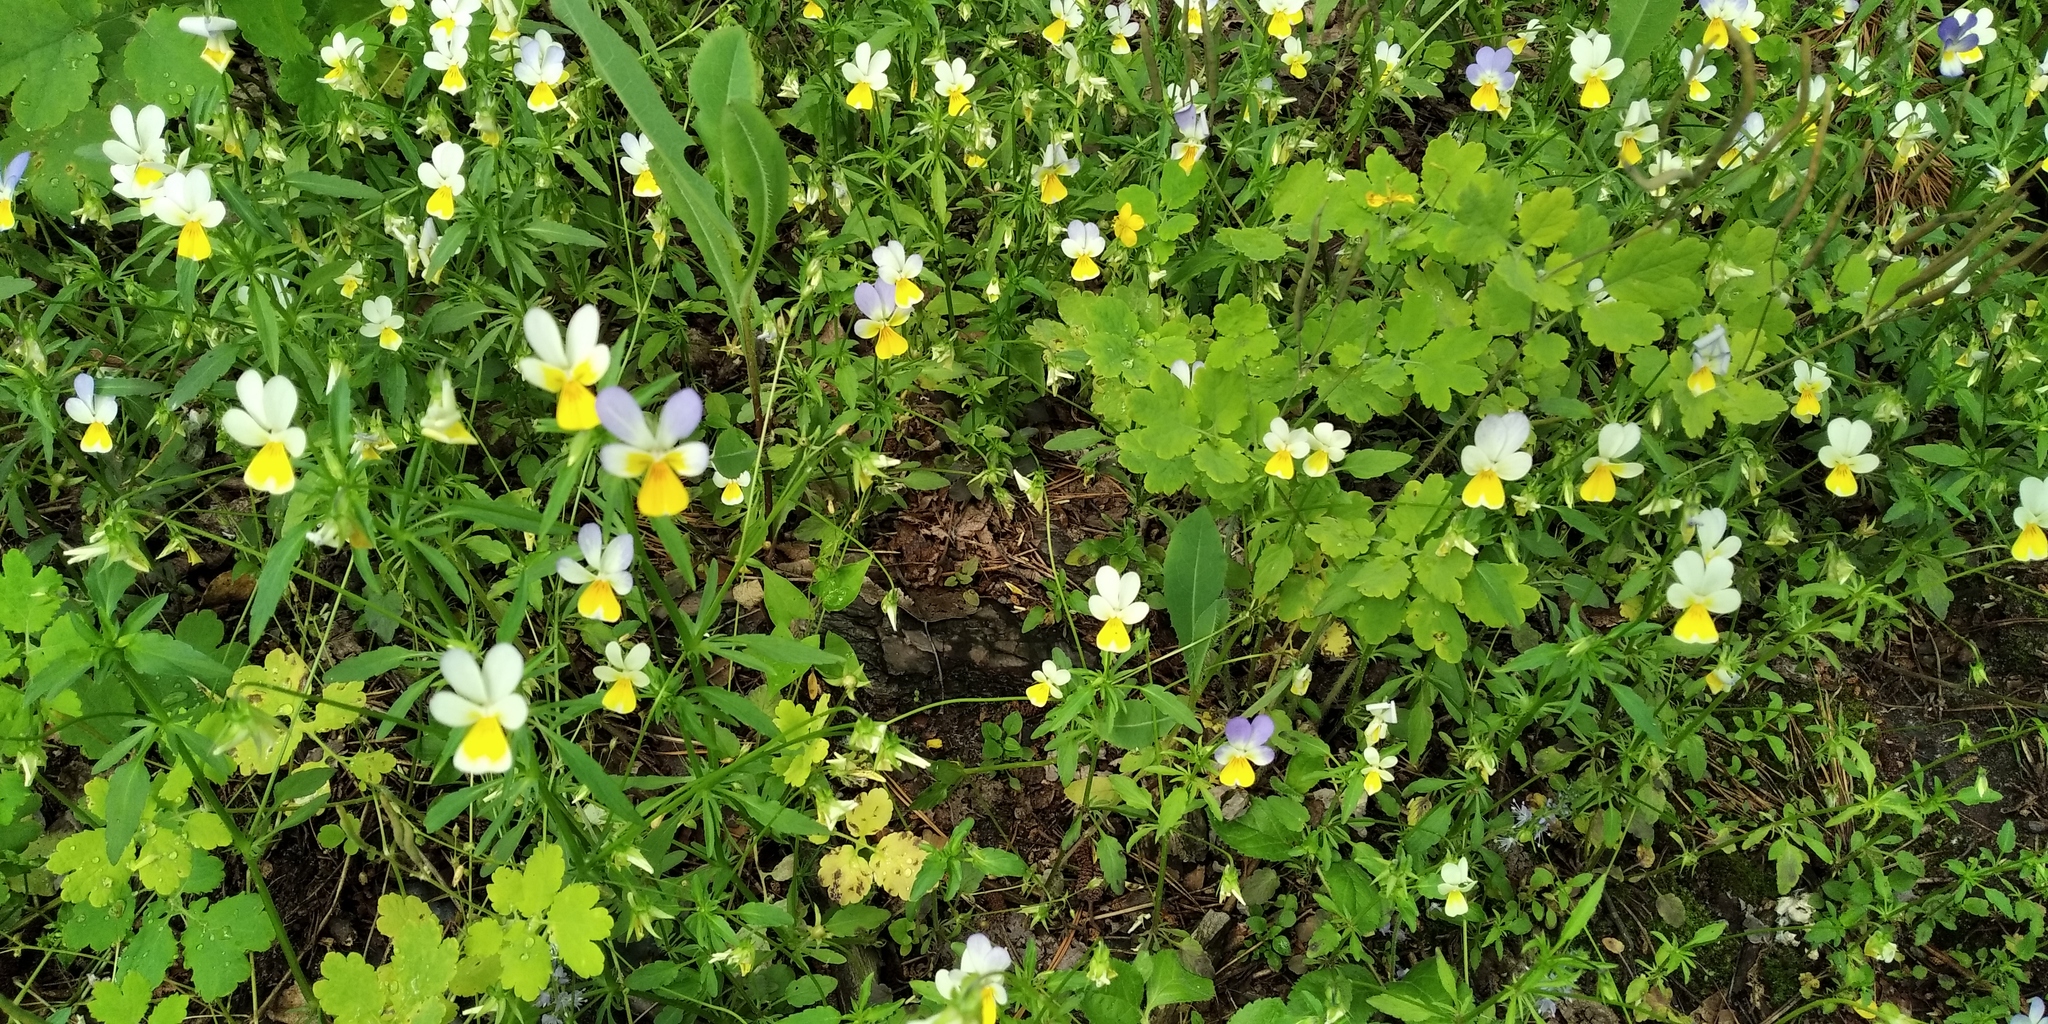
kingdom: Plantae
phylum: Tracheophyta
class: Magnoliopsida
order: Malpighiales
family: Violaceae
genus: Viola
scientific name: Viola tricolor
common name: Pansy
